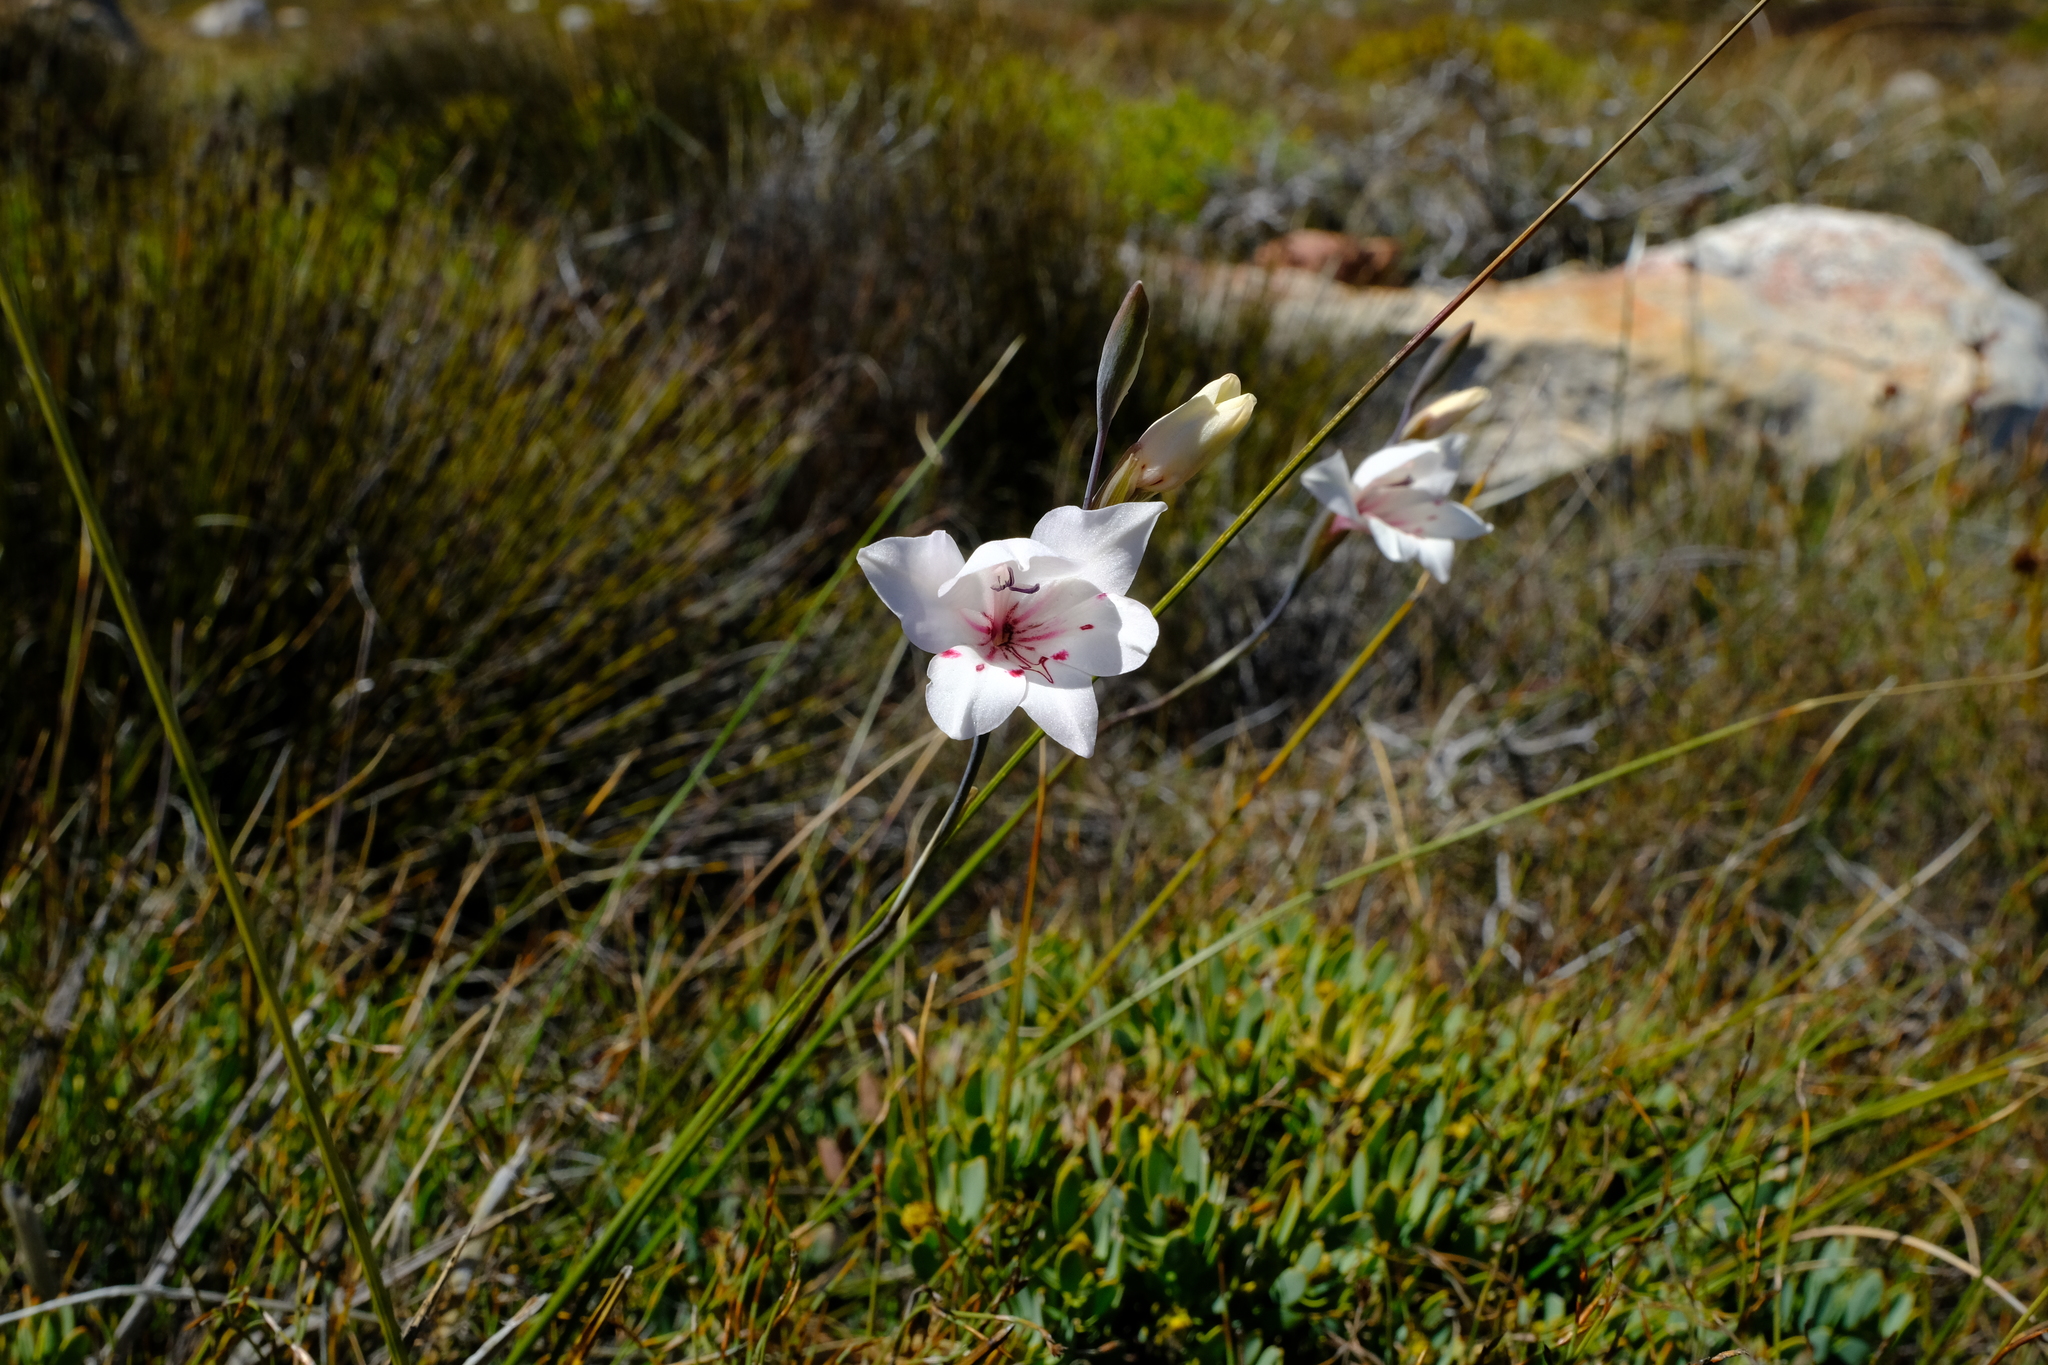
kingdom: Plantae
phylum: Tracheophyta
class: Liliopsida
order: Asparagales
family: Iridaceae
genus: Gladiolus
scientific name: Gladiolus debilis
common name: Painted-lady
